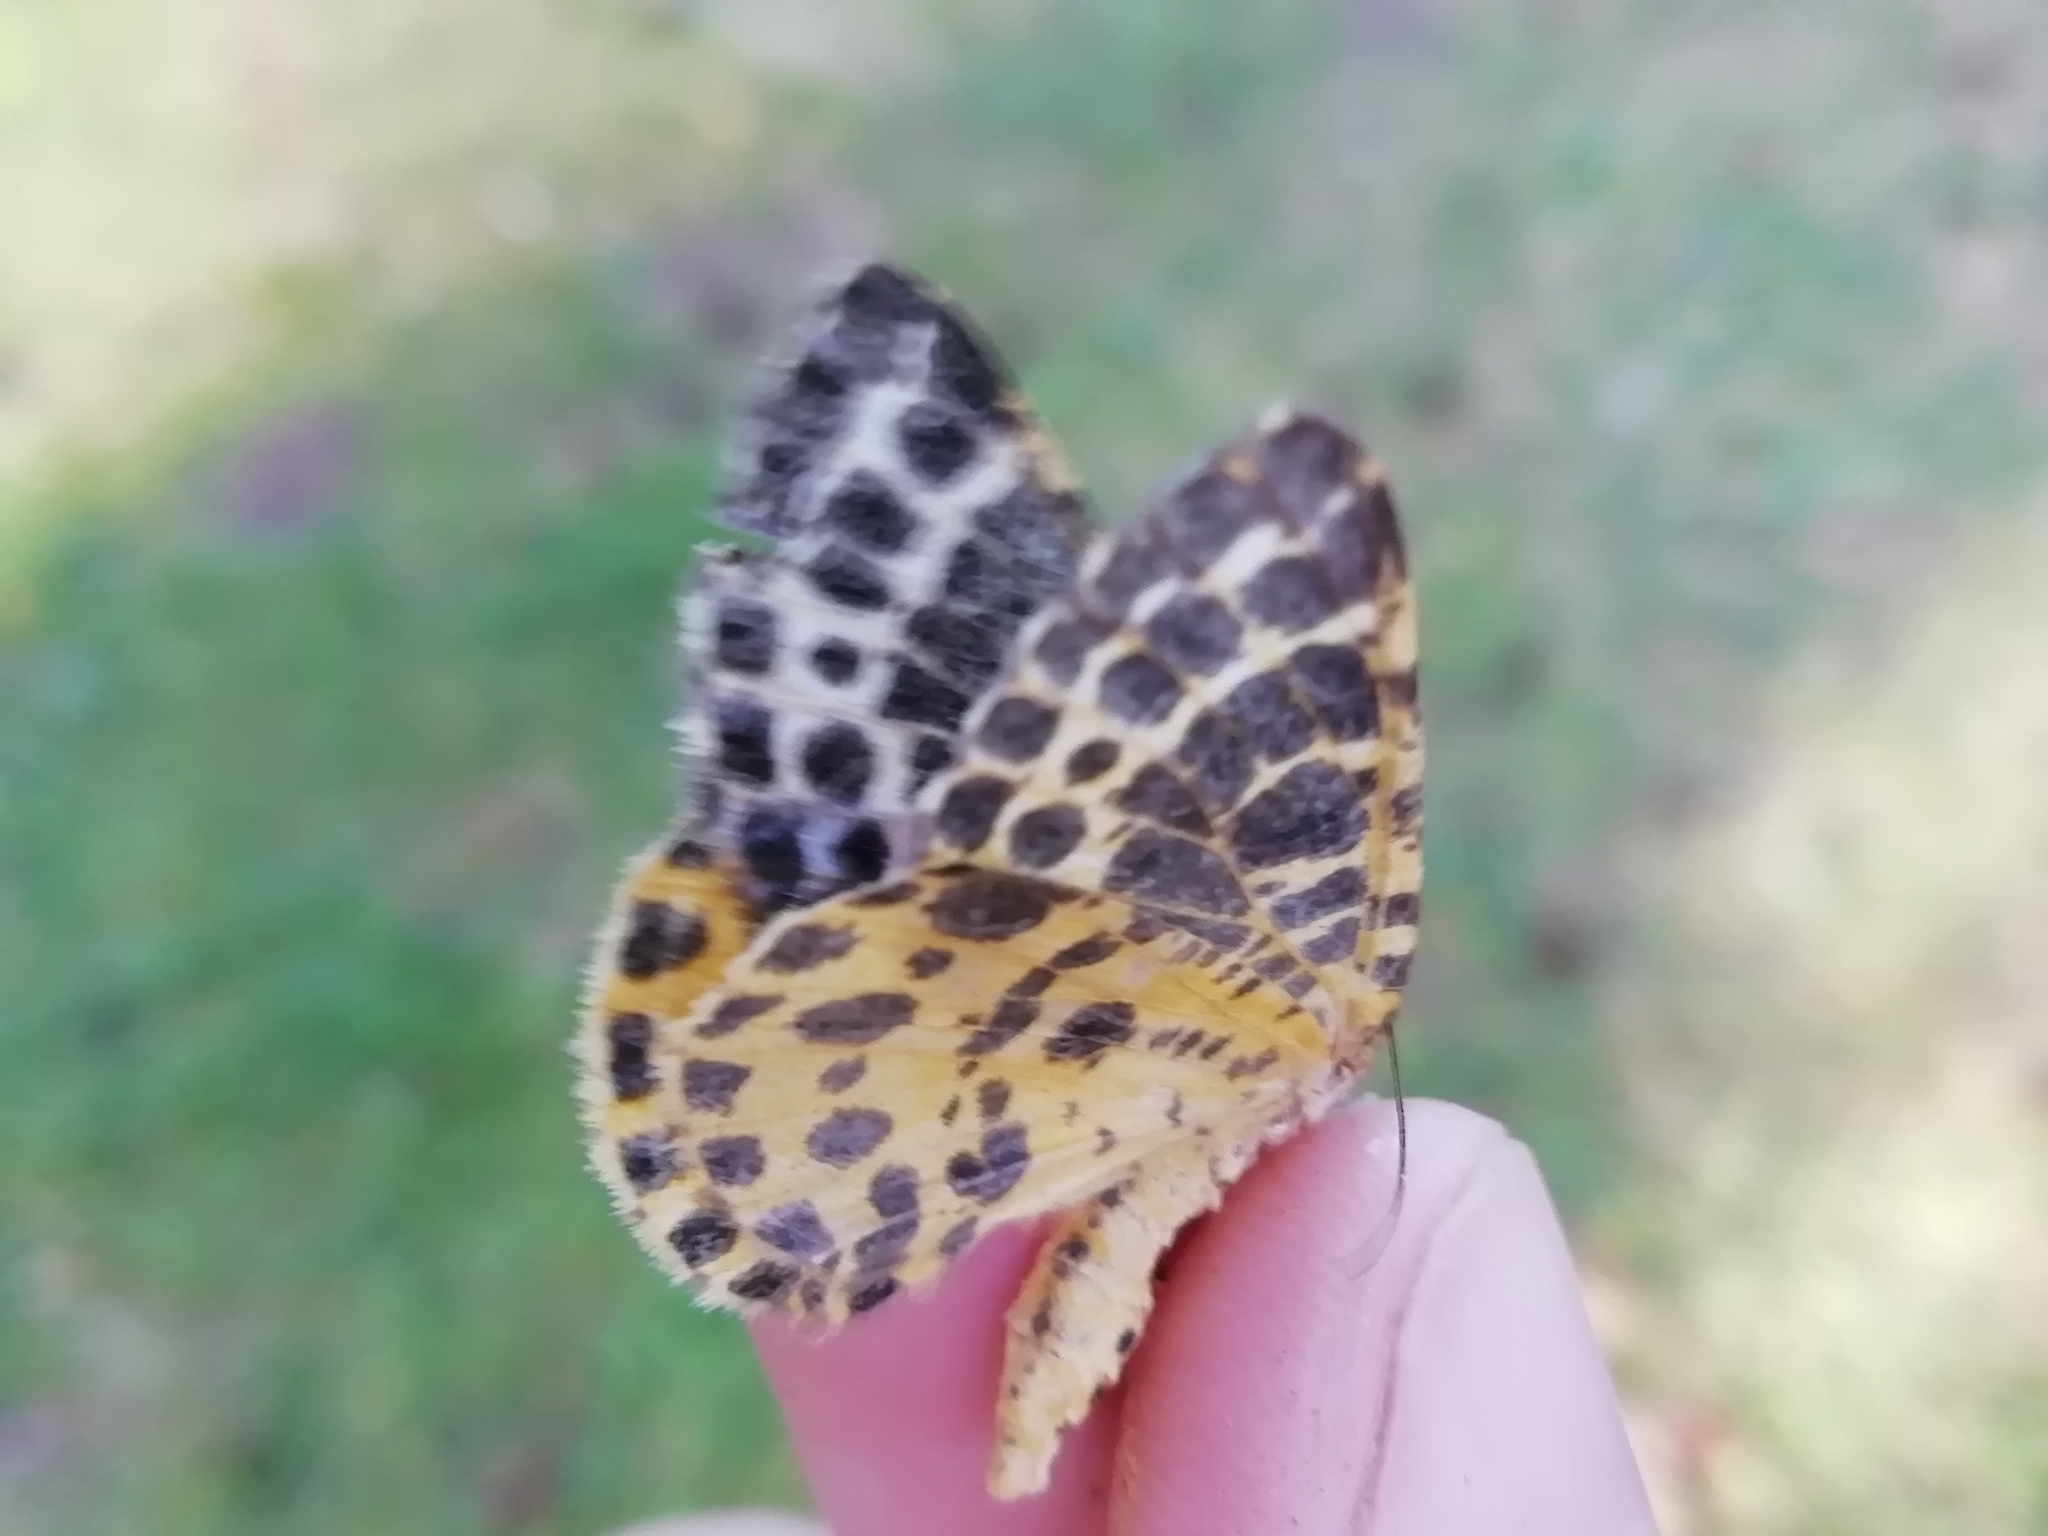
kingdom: Animalia
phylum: Arthropoda
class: Insecta
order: Lepidoptera
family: Geometridae
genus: Arichanna
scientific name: Arichanna melanaria
